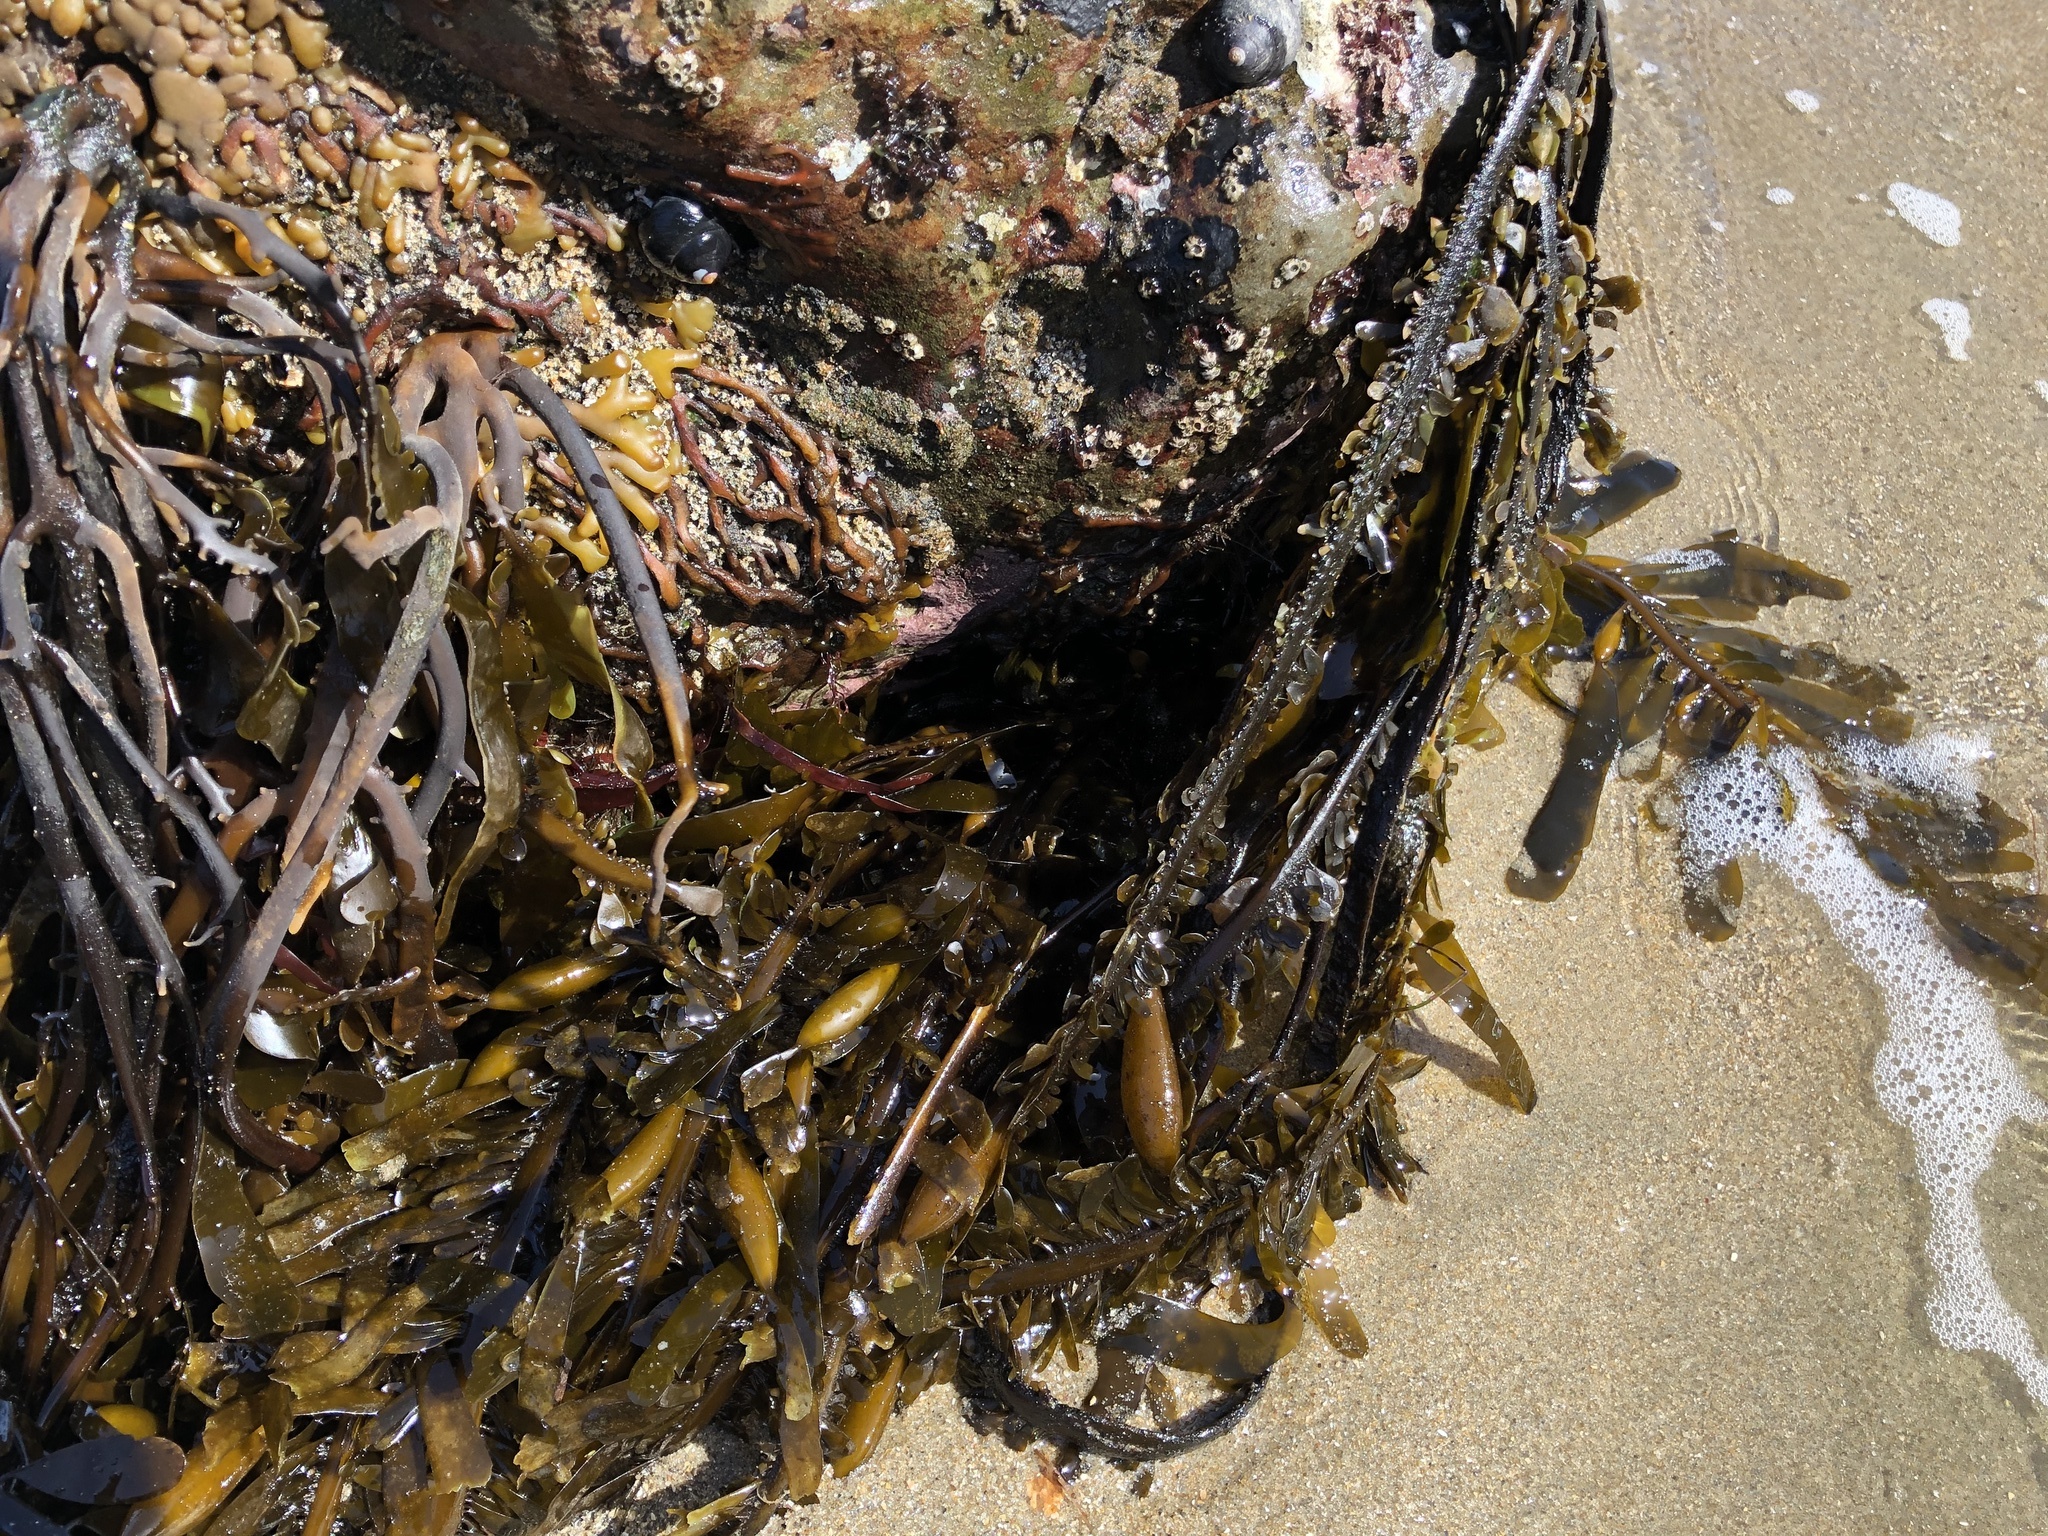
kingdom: Chromista
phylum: Ochrophyta
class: Phaeophyceae
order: Laminariales
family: Lessoniaceae
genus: Egregia
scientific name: Egregia menziesii
